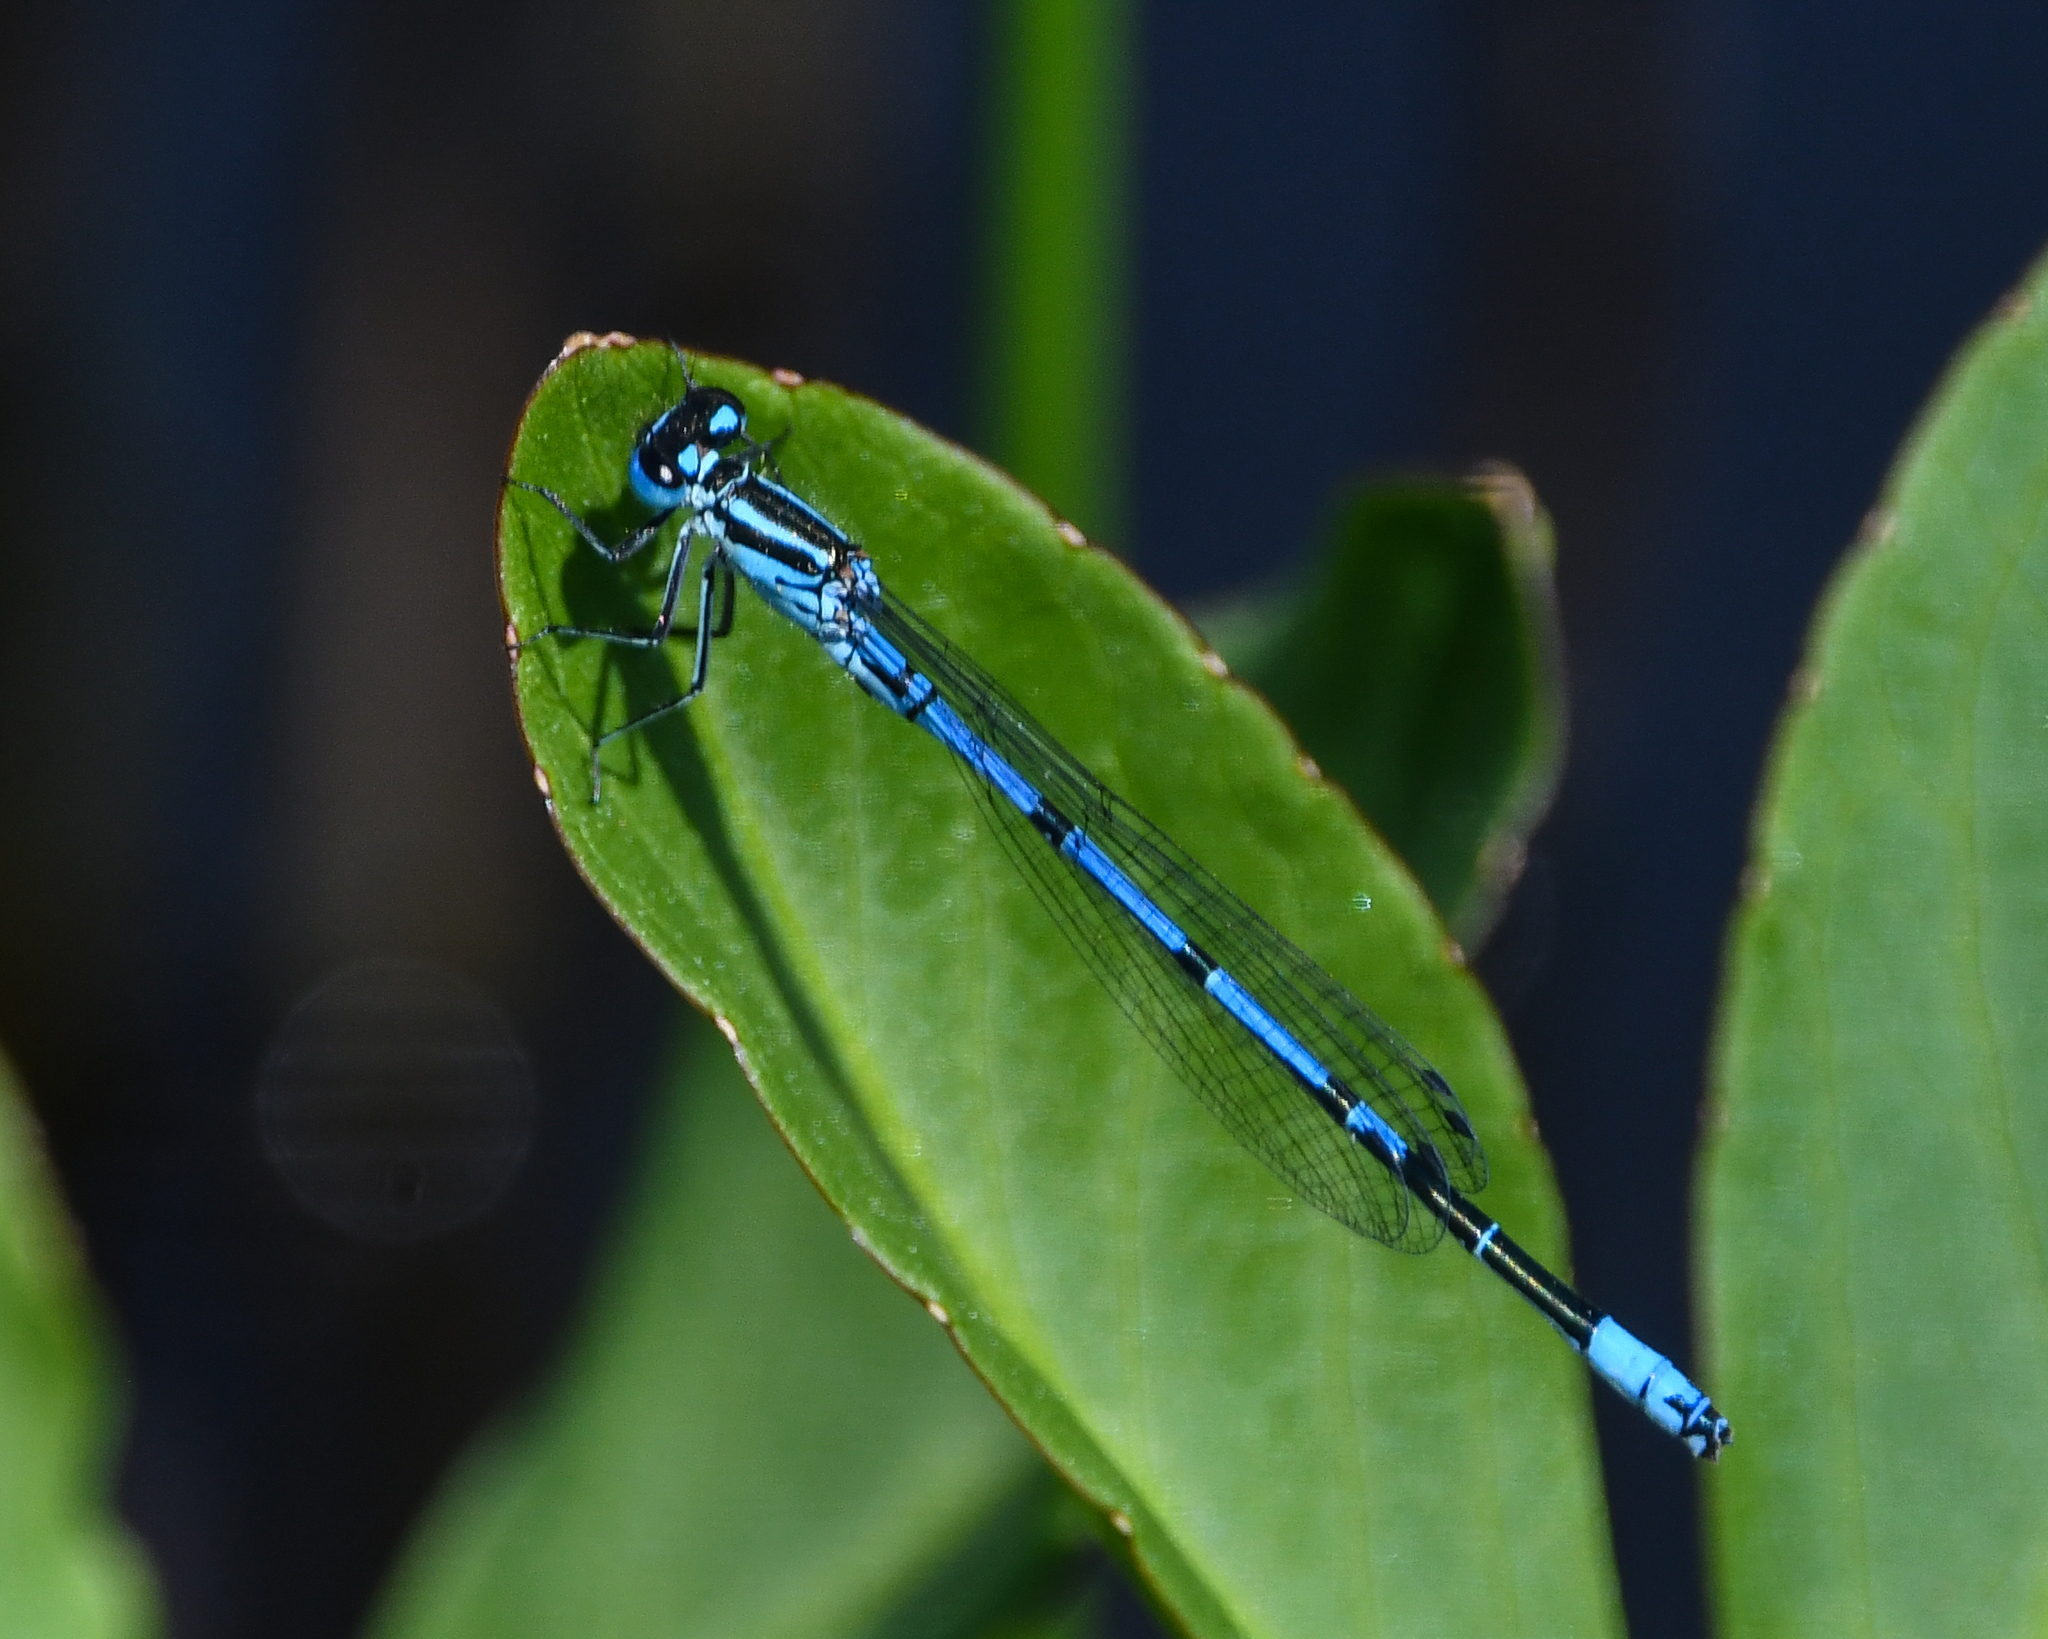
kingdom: Animalia
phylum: Arthropoda
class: Insecta
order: Odonata
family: Coenagrionidae
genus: Coenagrion
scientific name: Coenagrion puella
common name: Azure damselfly
